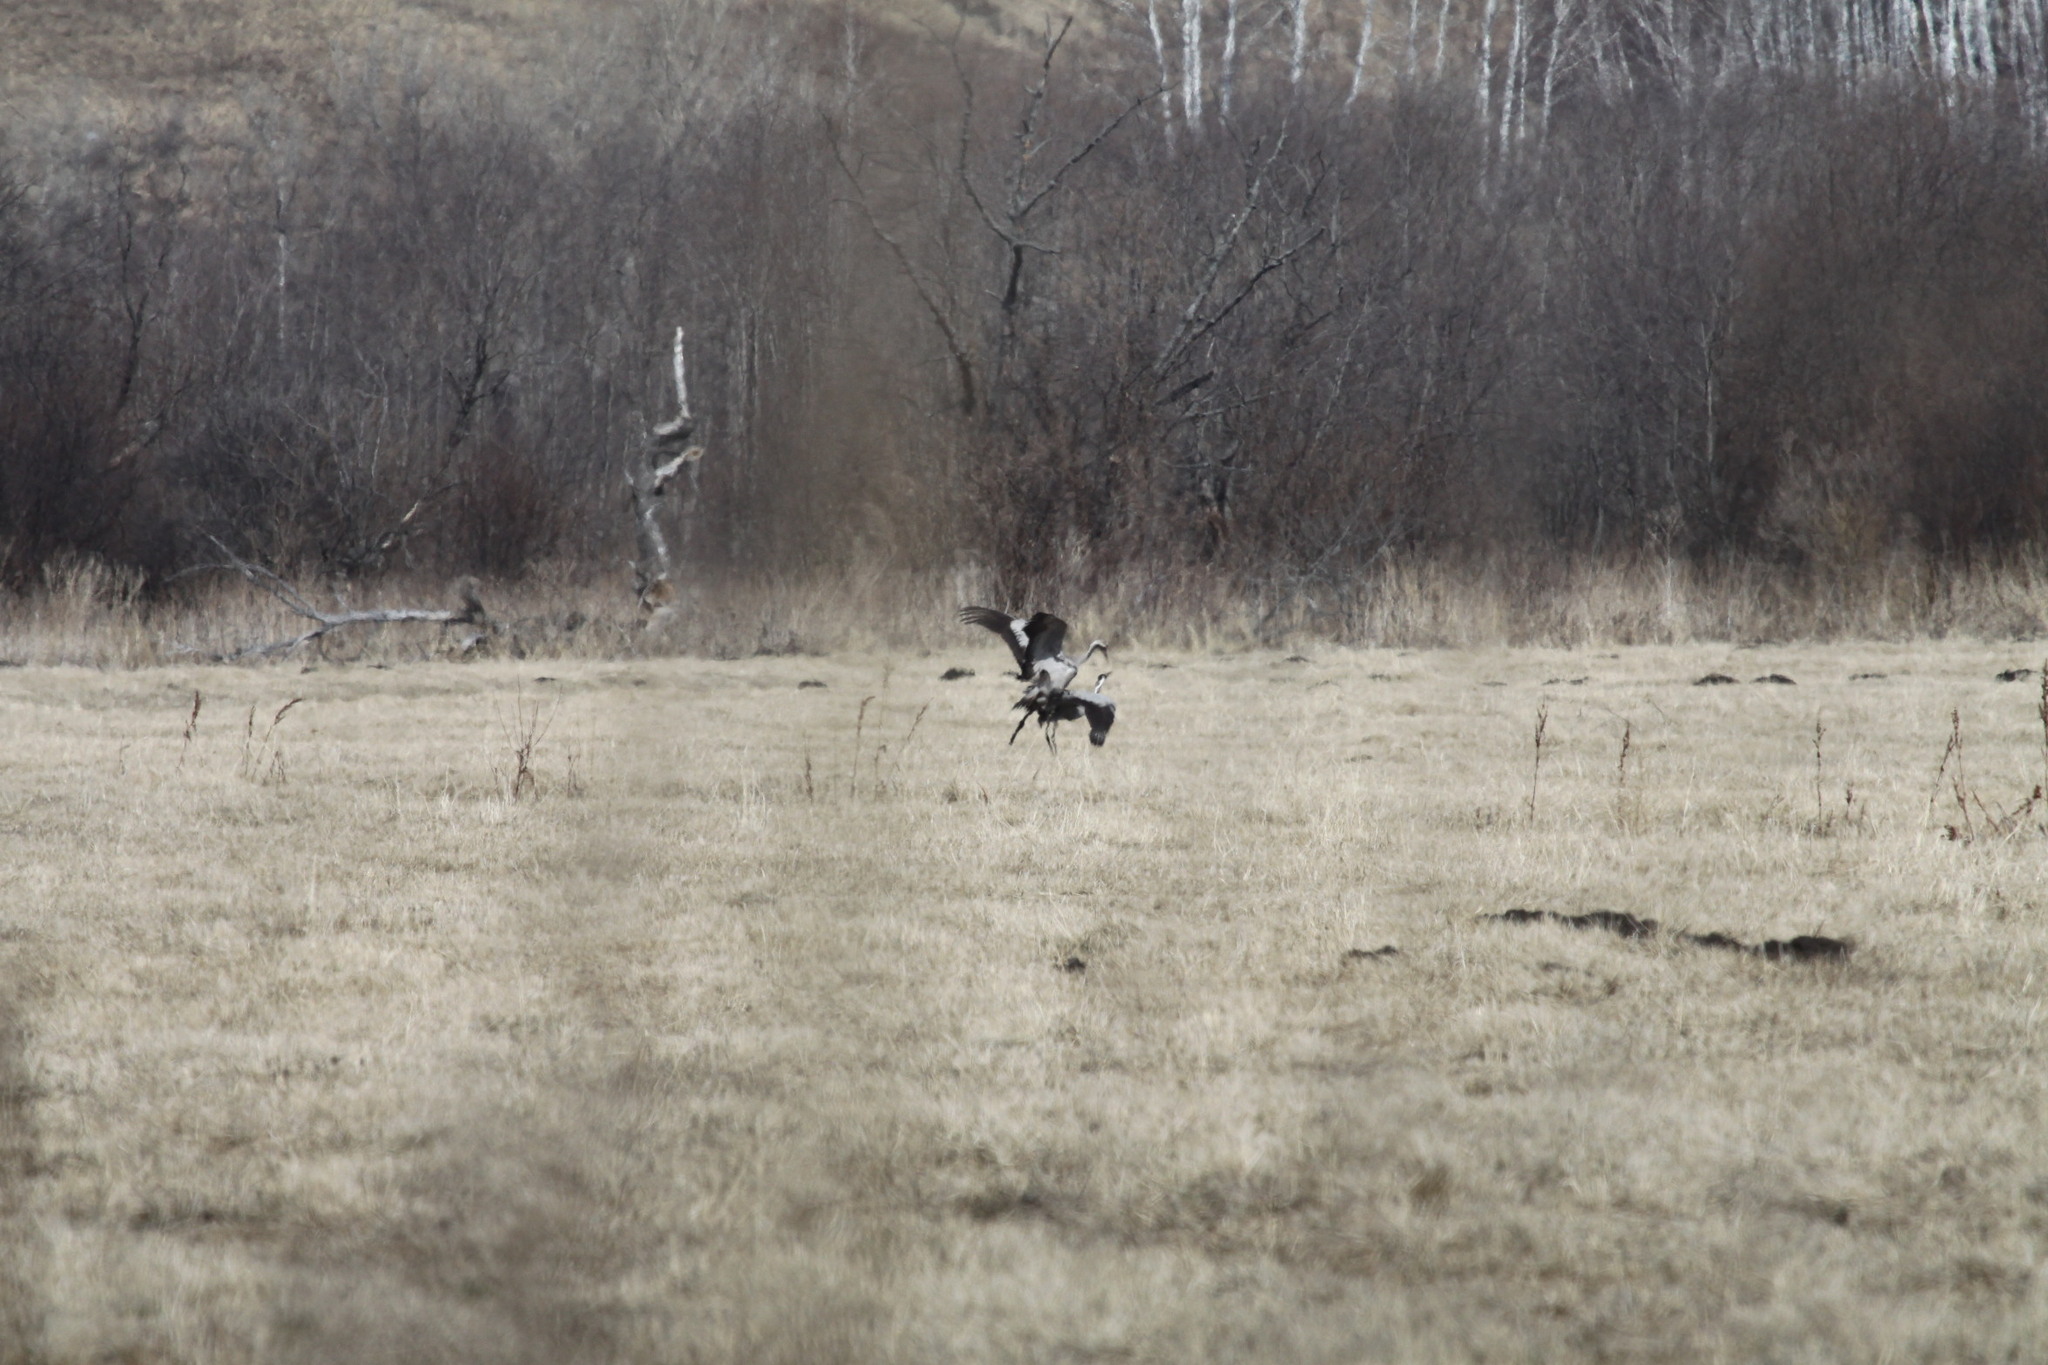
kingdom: Animalia
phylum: Chordata
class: Aves
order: Gruiformes
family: Gruidae
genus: Grus
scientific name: Grus grus
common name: Common crane
